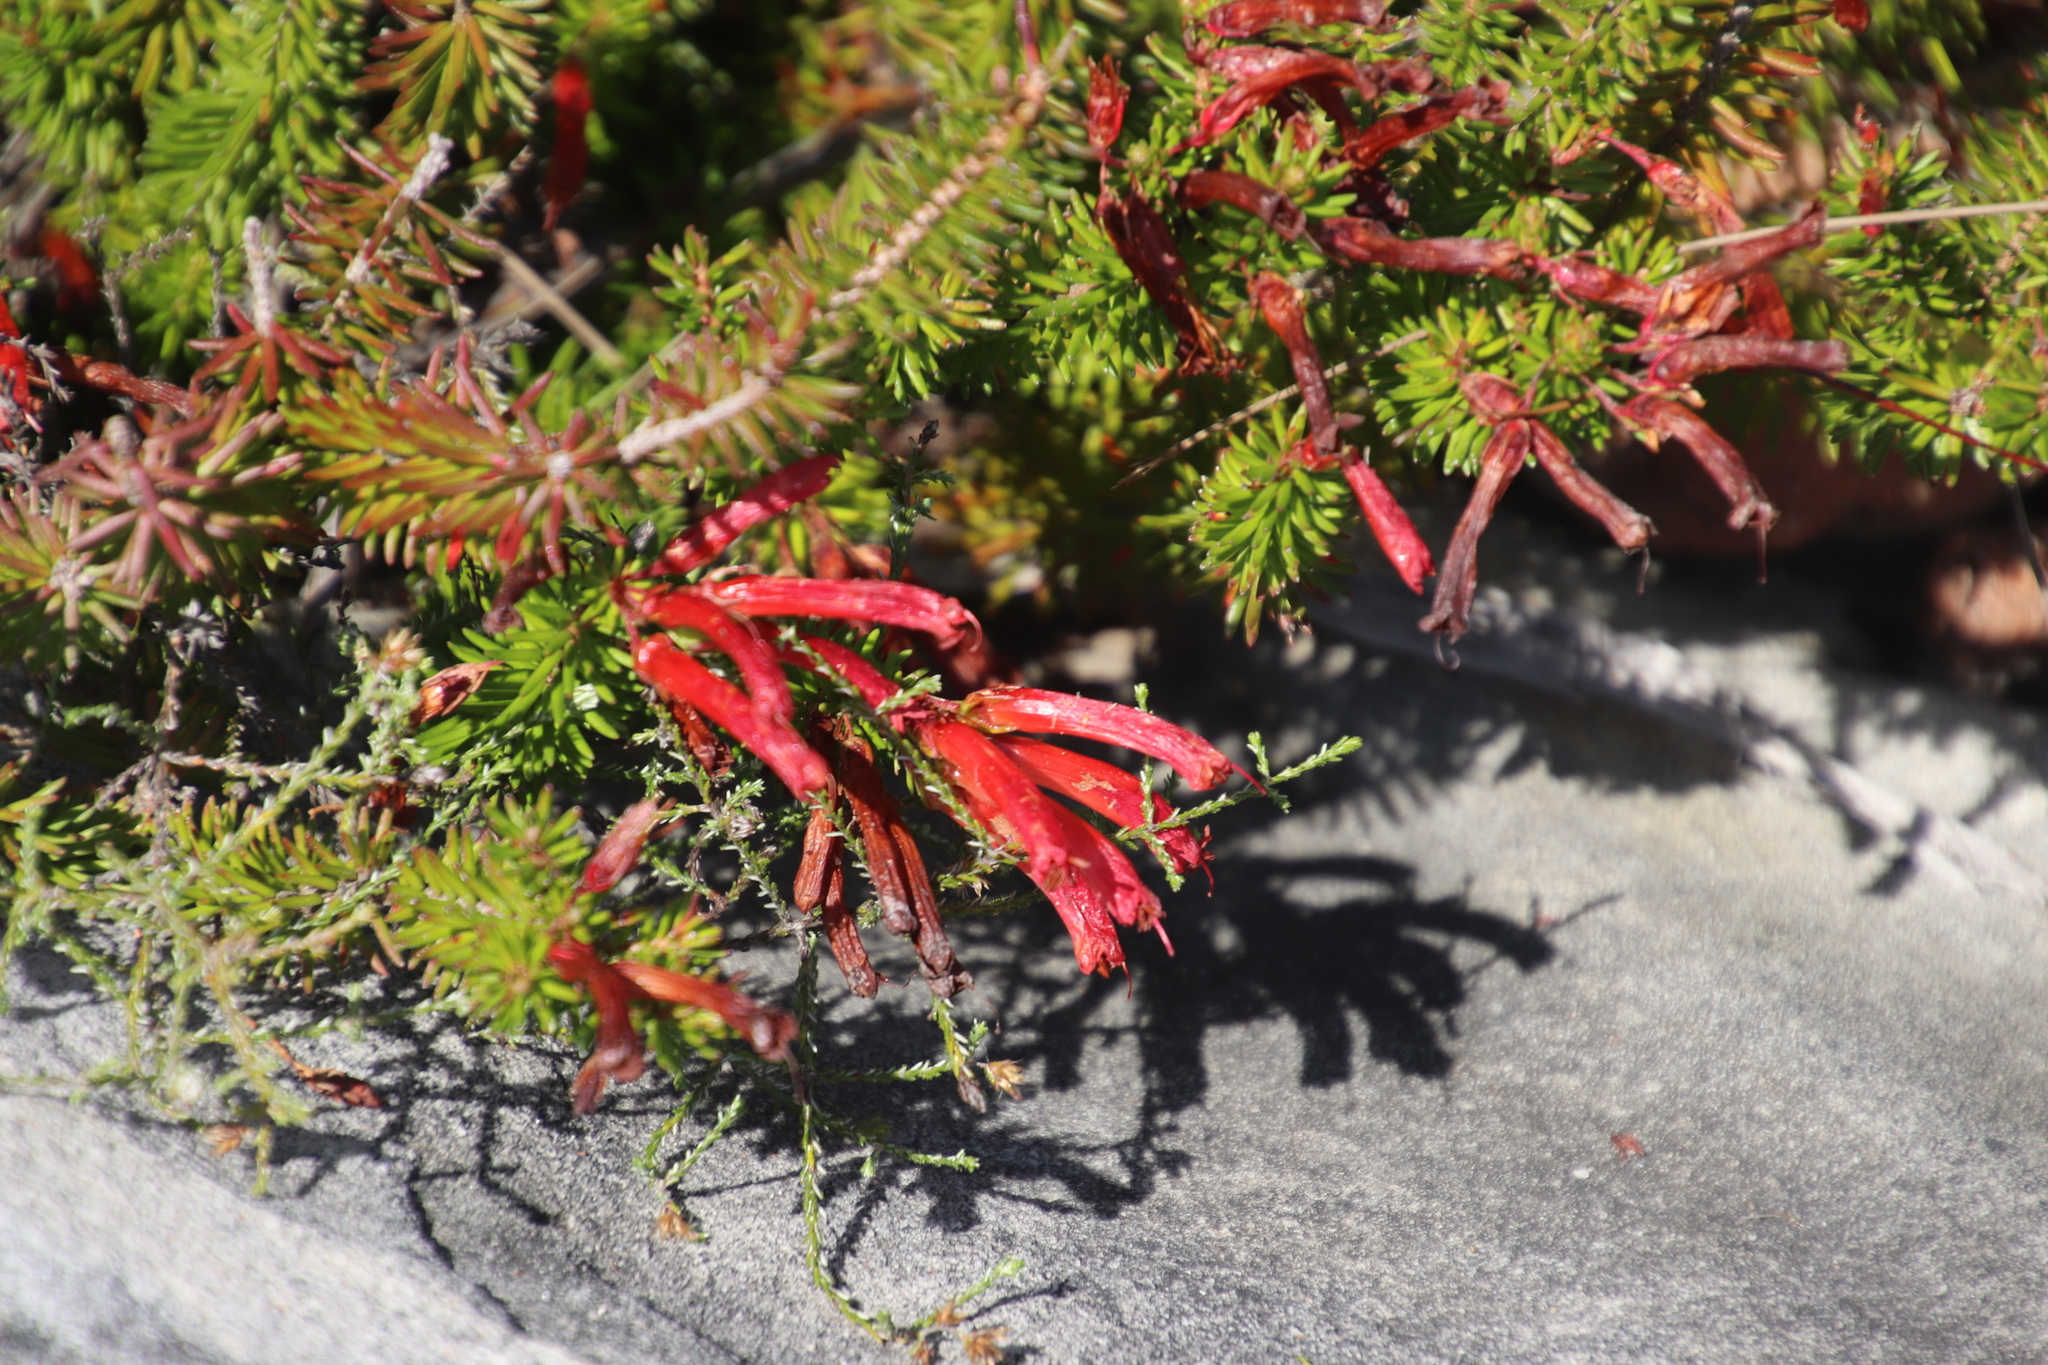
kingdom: Plantae
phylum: Tracheophyta
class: Magnoliopsida
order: Ericales
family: Ericaceae
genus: Erica
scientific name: Erica nevillei
